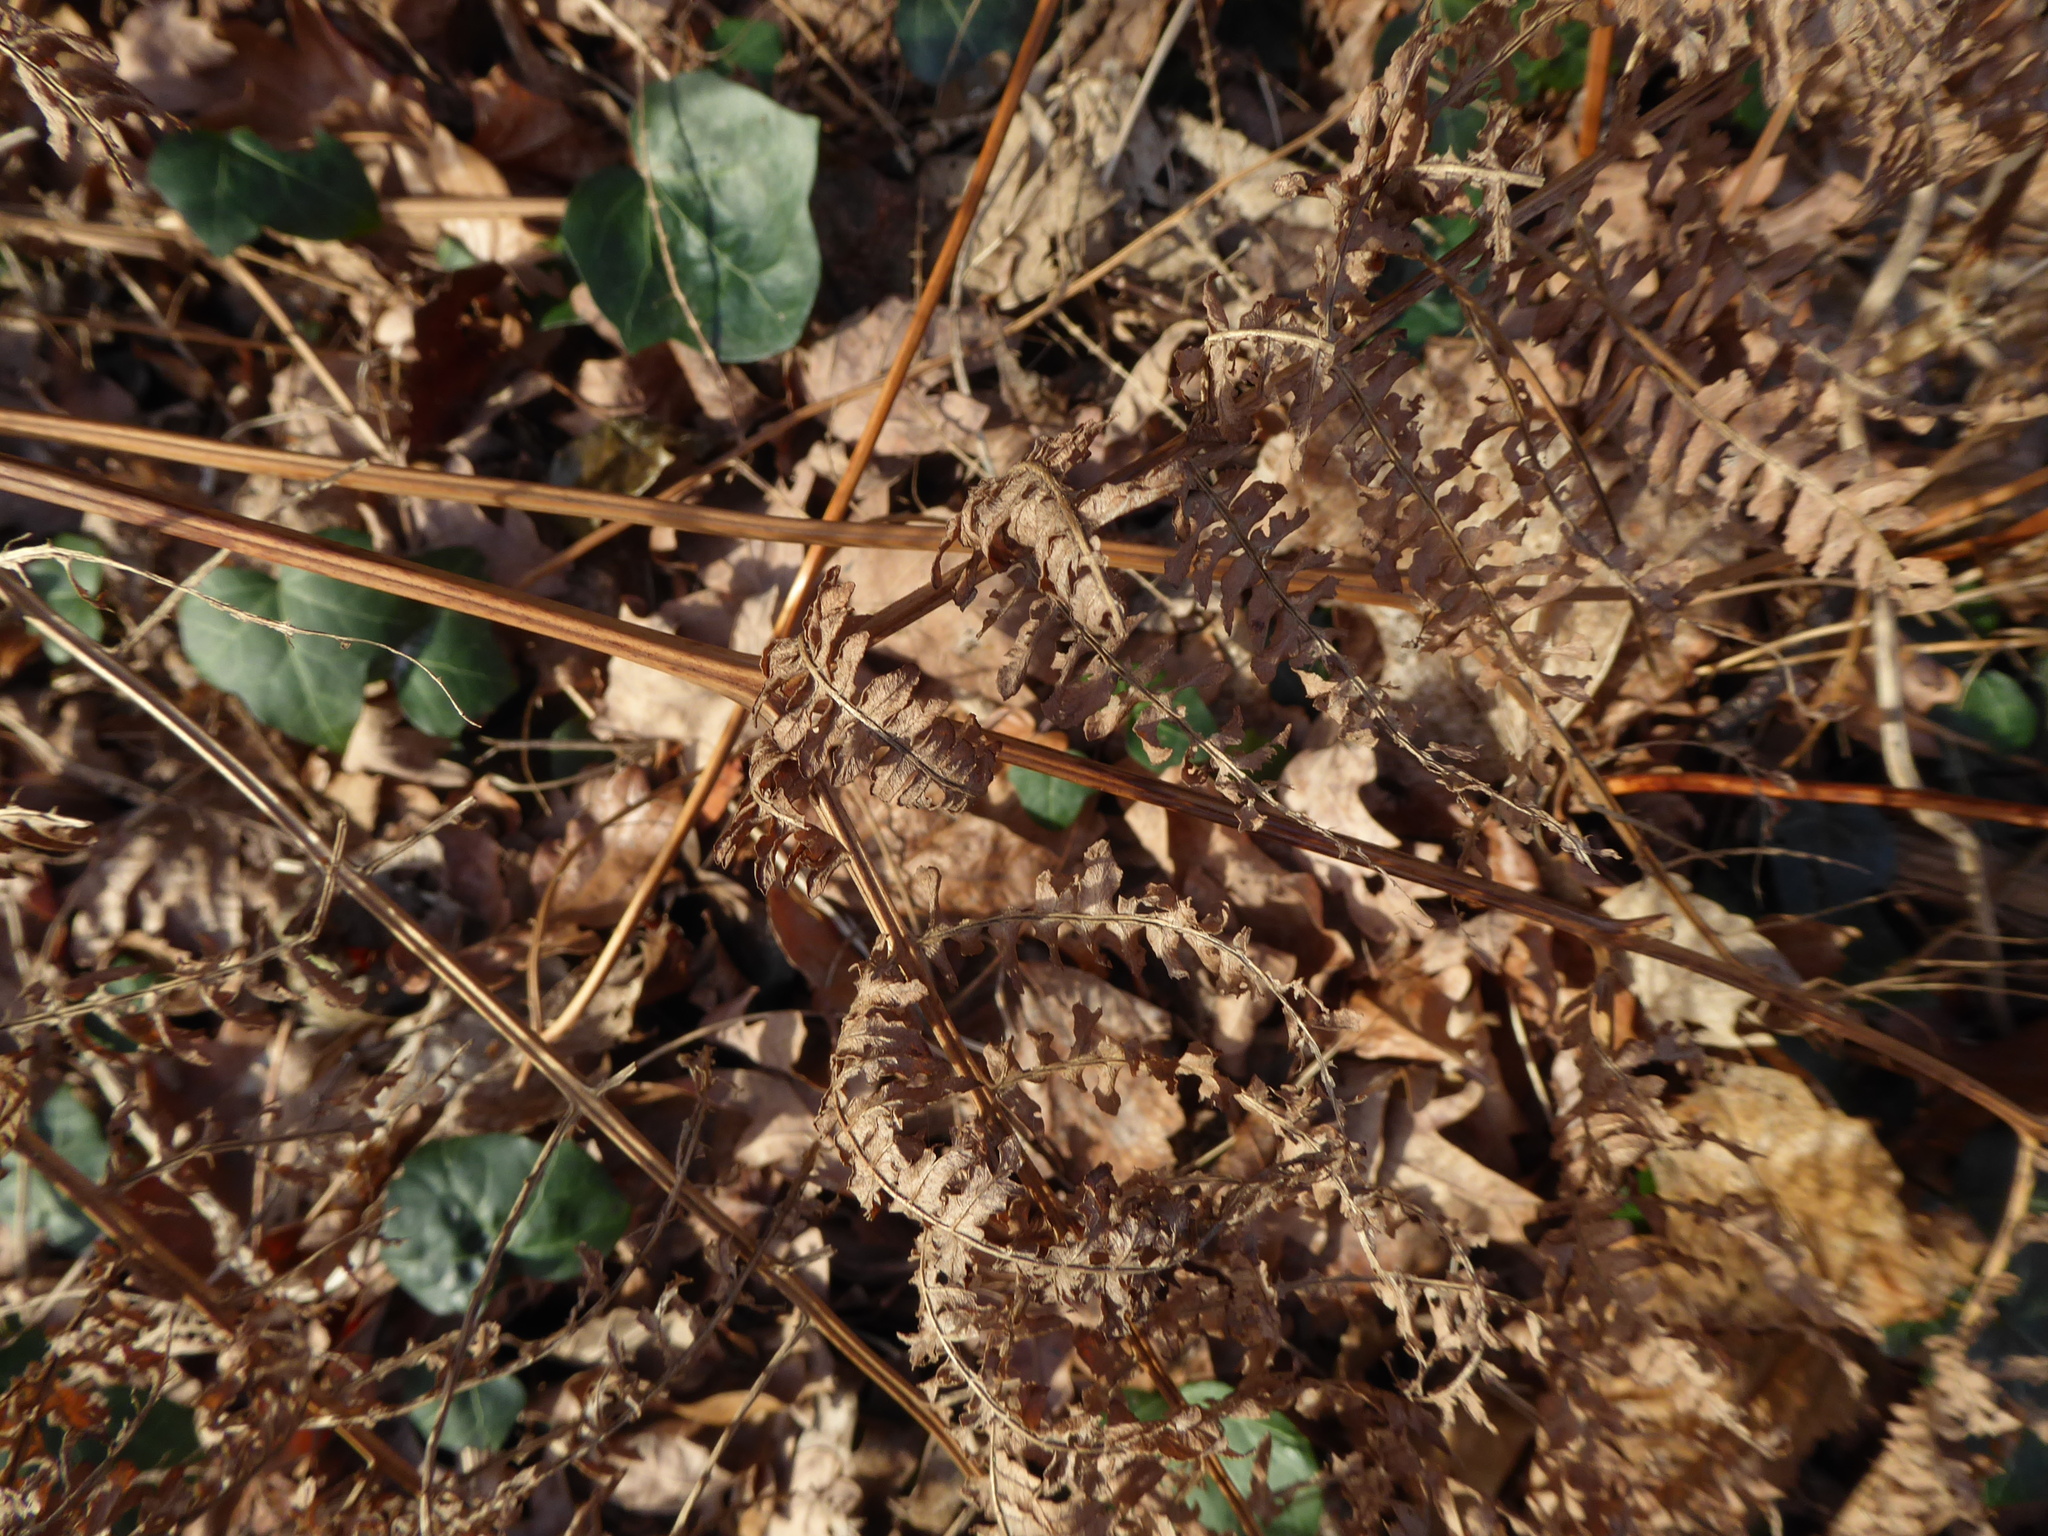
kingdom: Plantae
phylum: Tracheophyta
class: Polypodiopsida
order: Polypodiales
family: Dennstaedtiaceae
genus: Pteridium
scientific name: Pteridium aquilinum
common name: Bracken
